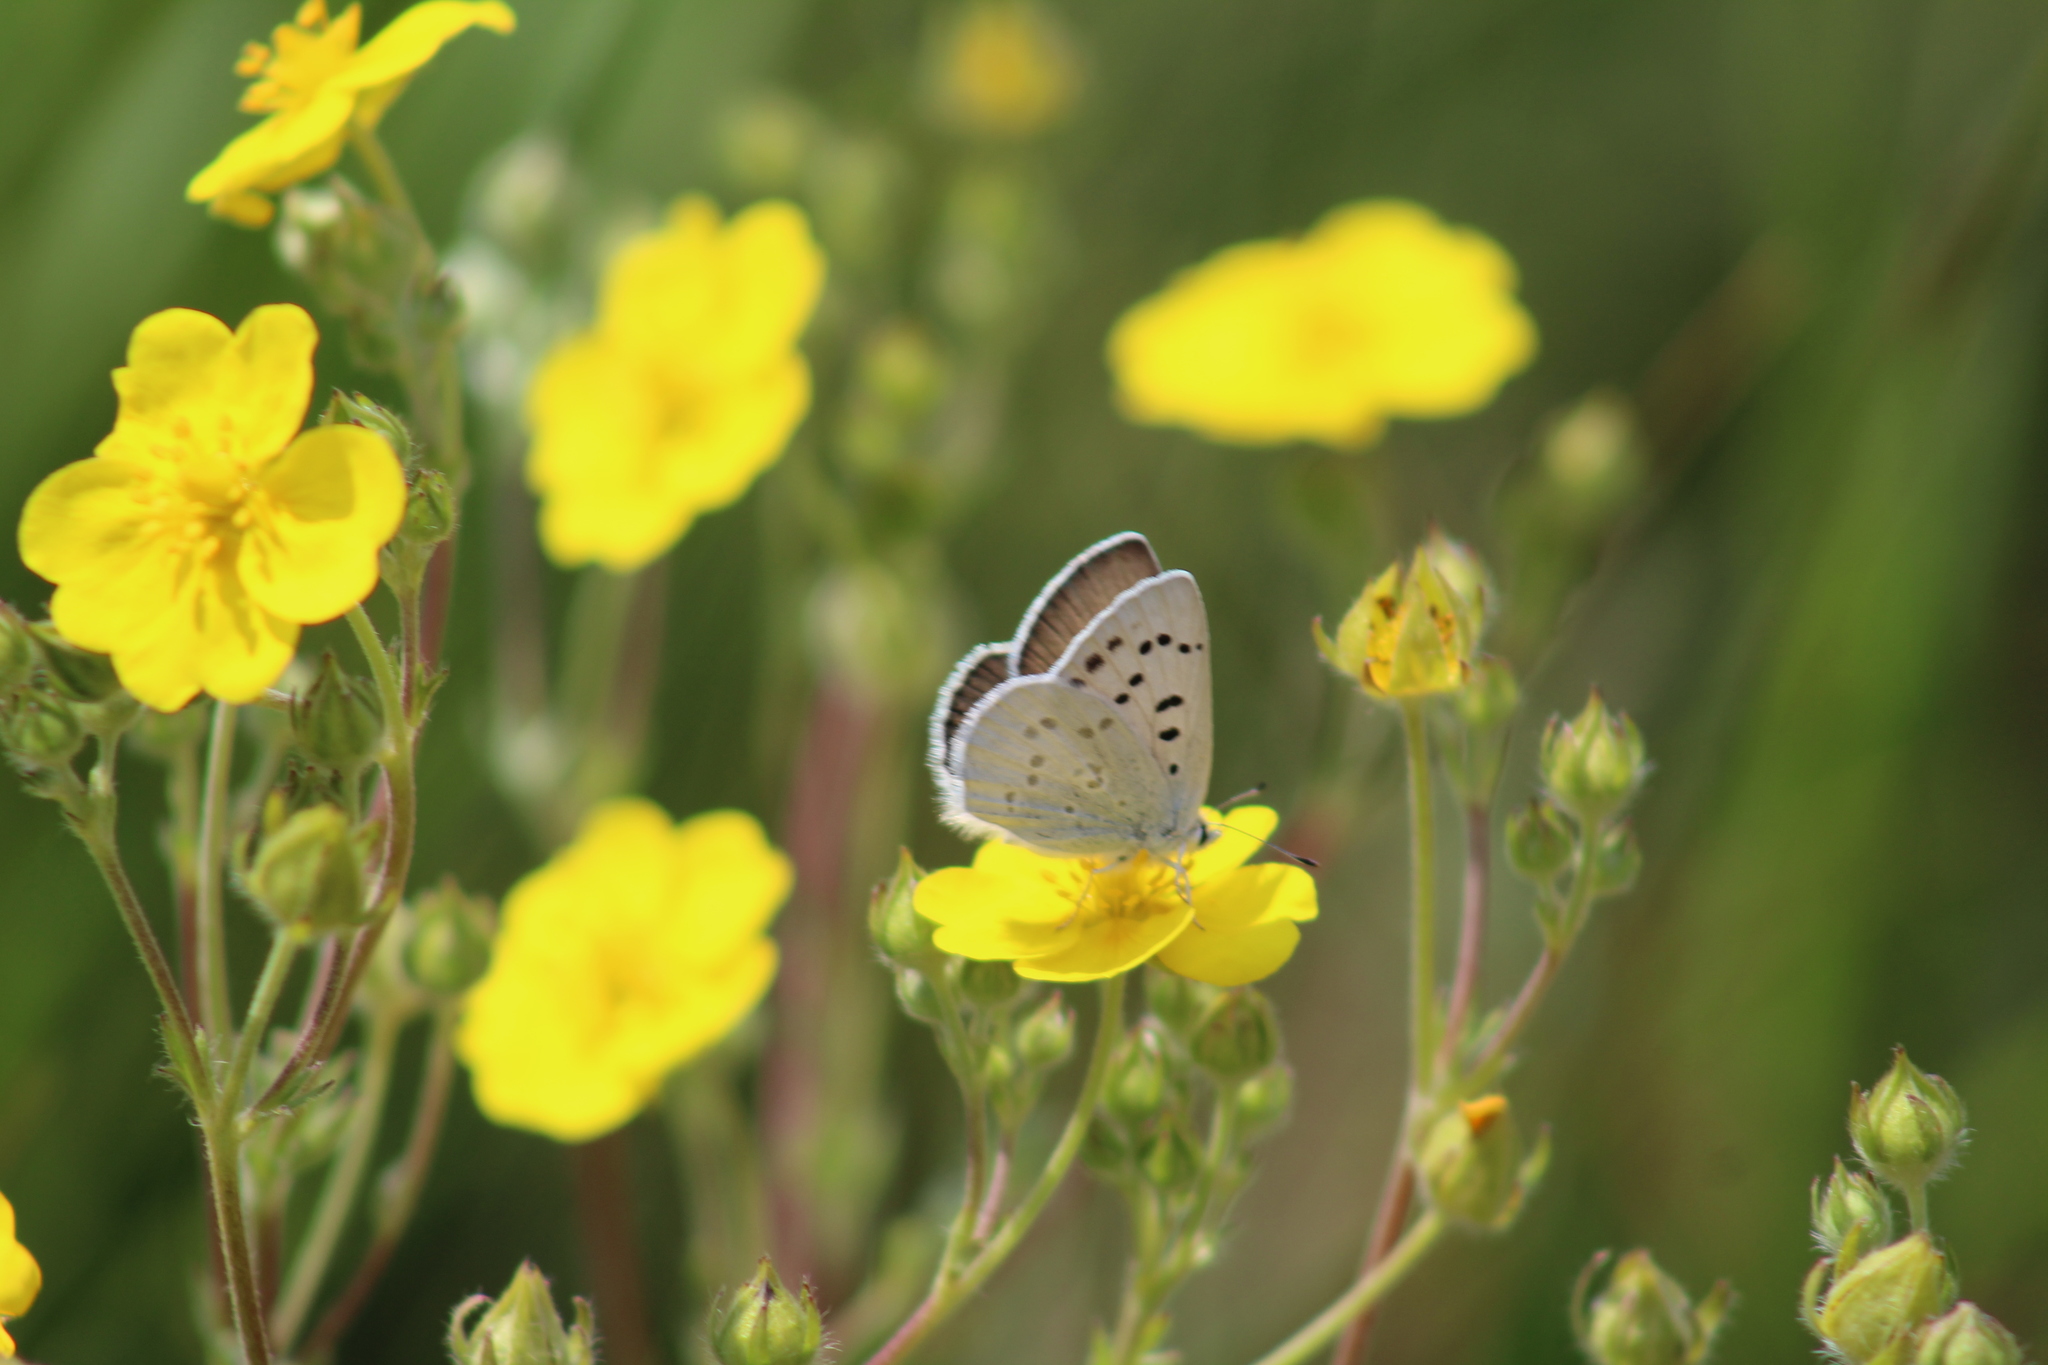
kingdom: Animalia
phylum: Arthropoda
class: Insecta
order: Lepidoptera
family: Lycaenidae
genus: Tharsalea
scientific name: Tharsalea heteronea
